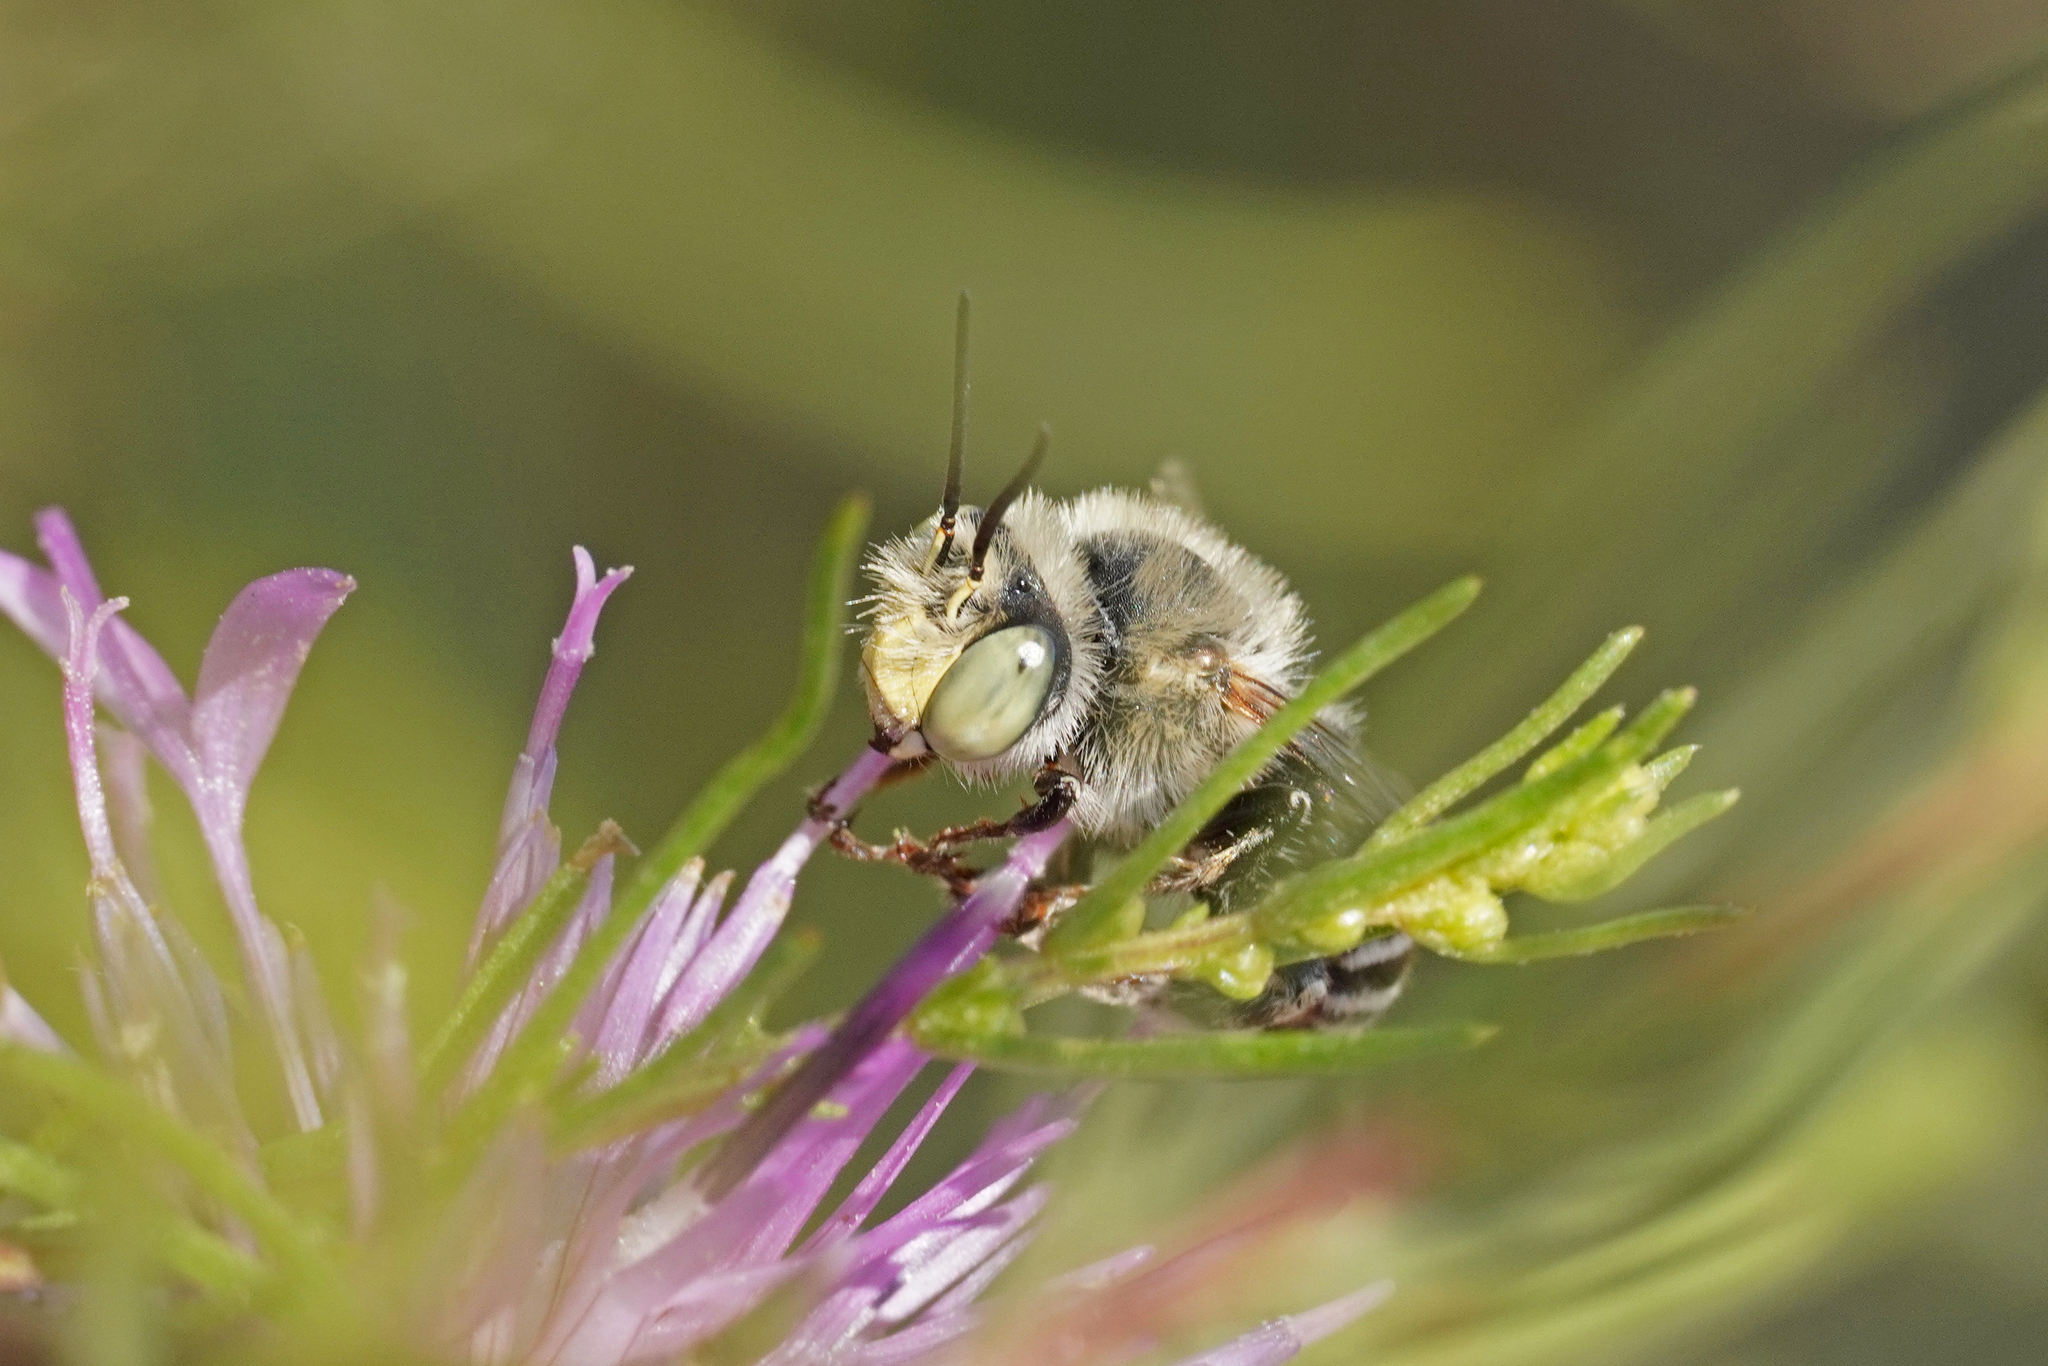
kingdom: Animalia
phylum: Arthropoda
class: Insecta
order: Hymenoptera
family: Apidae
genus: Anthophora
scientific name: Anthophora bimaculata
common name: Green-eyed flower bee
